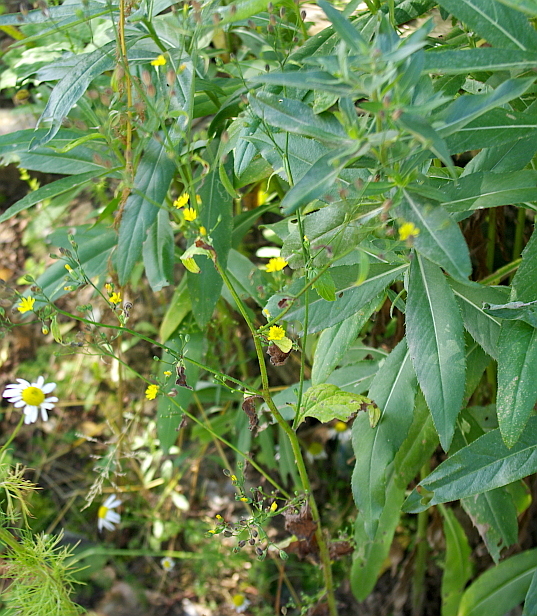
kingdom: Plantae
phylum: Tracheophyta
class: Magnoliopsida
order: Asterales
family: Asteraceae
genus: Lapsana
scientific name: Lapsana communis
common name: Nipplewort
